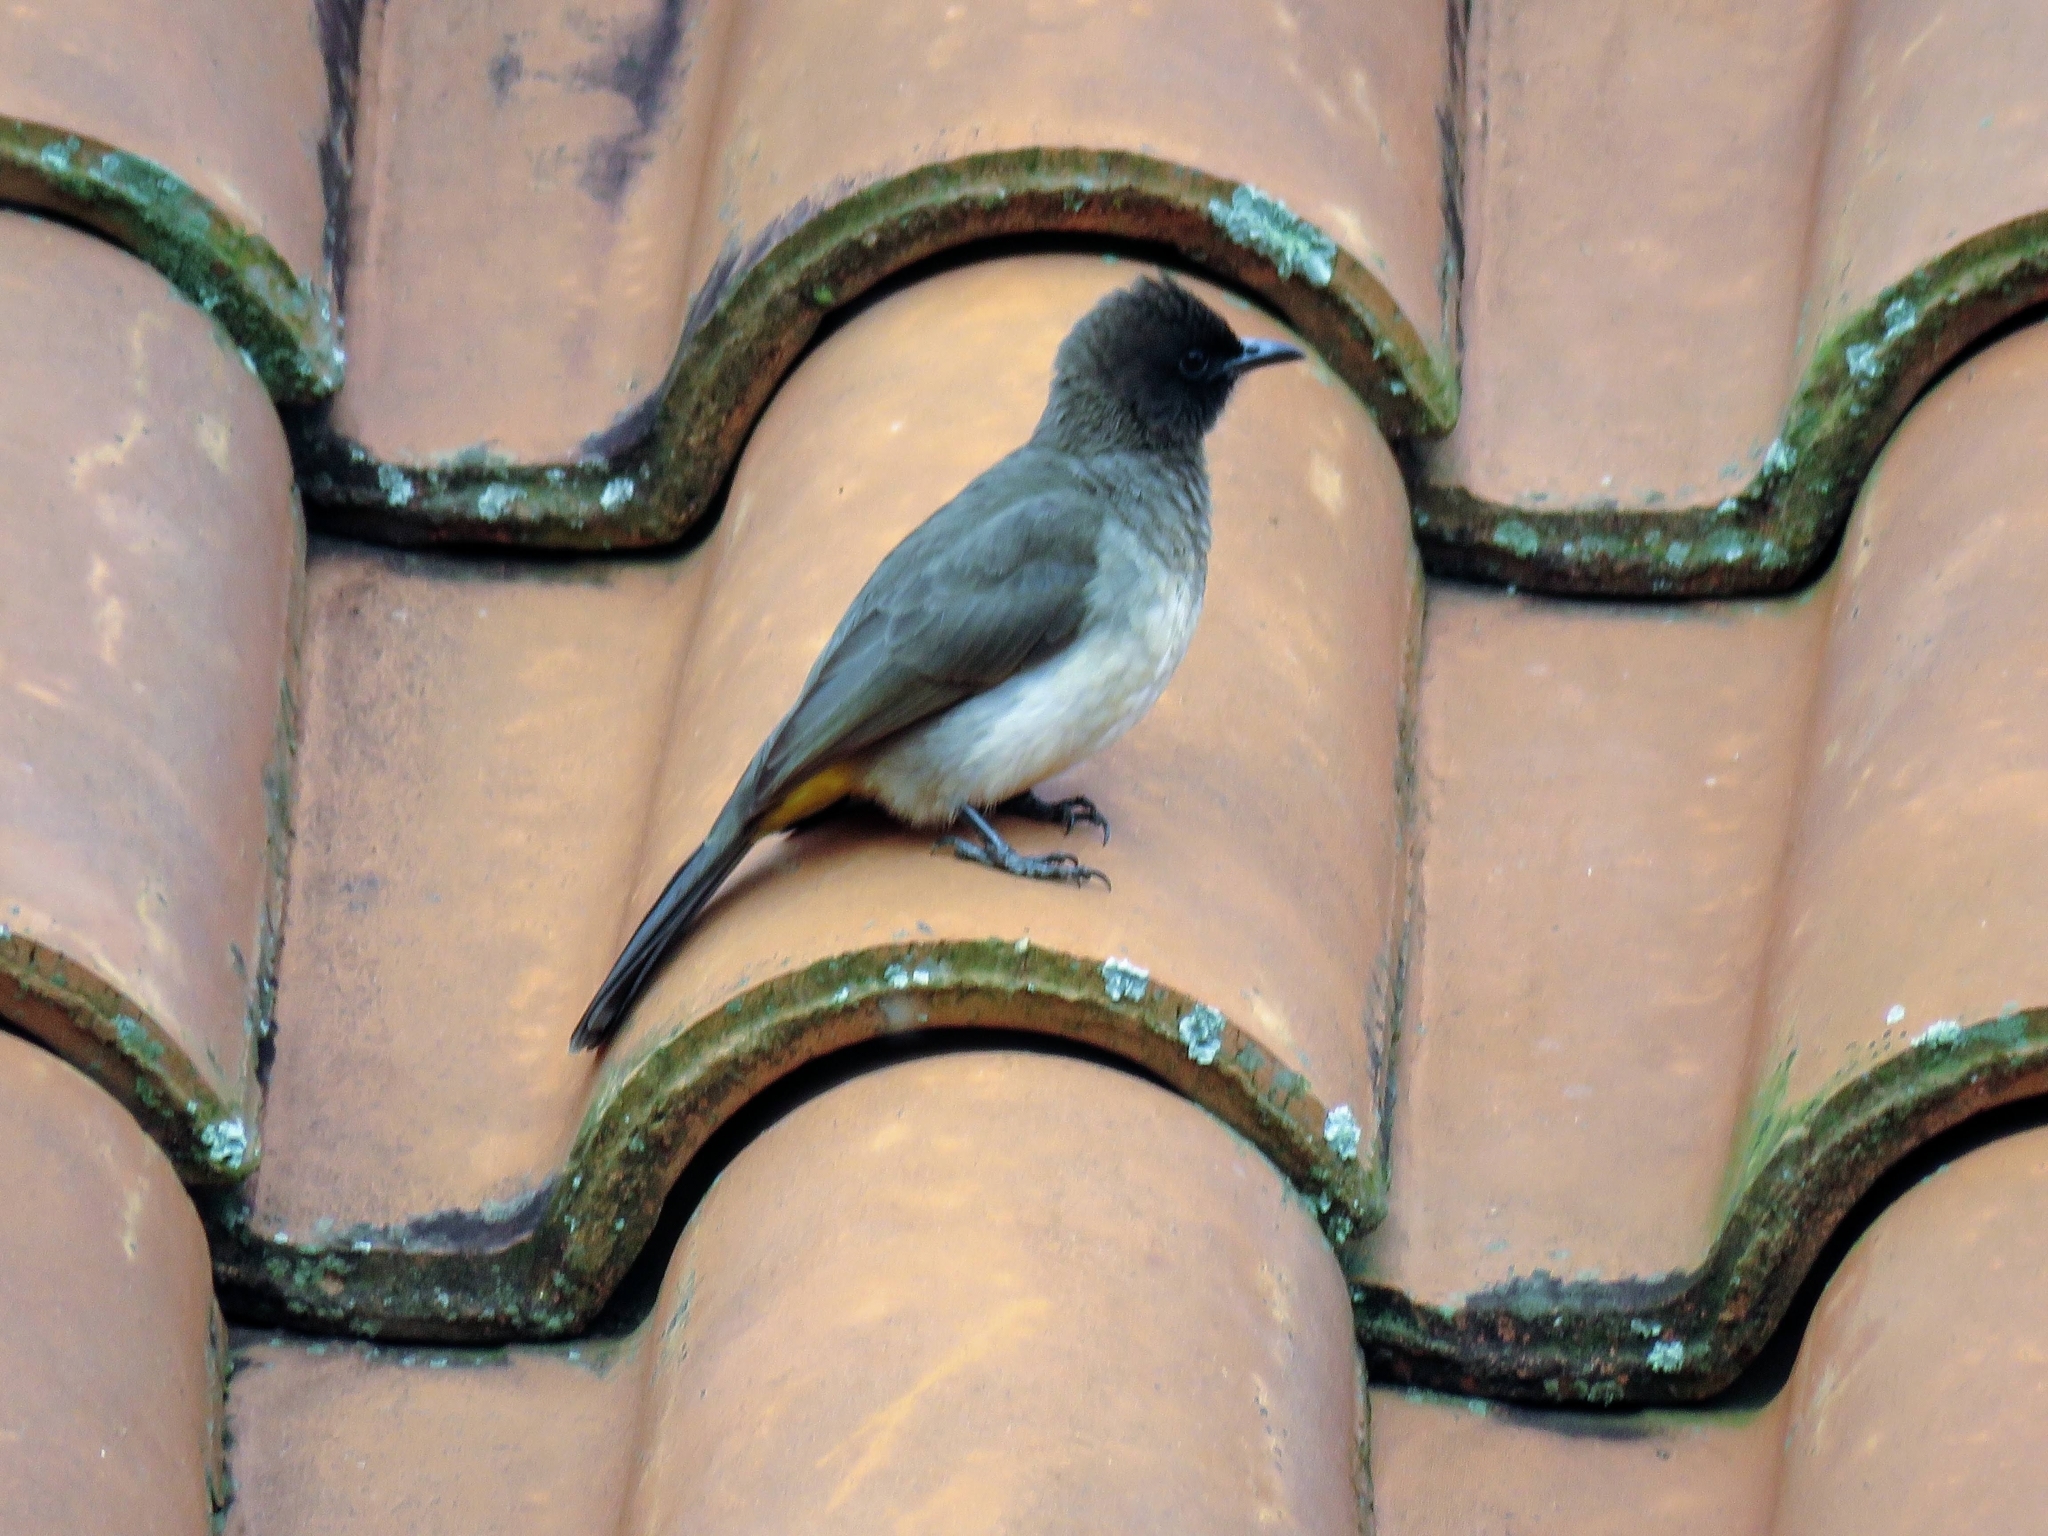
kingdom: Animalia
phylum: Chordata
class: Aves
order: Passeriformes
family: Pycnonotidae
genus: Pycnonotus
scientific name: Pycnonotus barbatus
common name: Common bulbul
